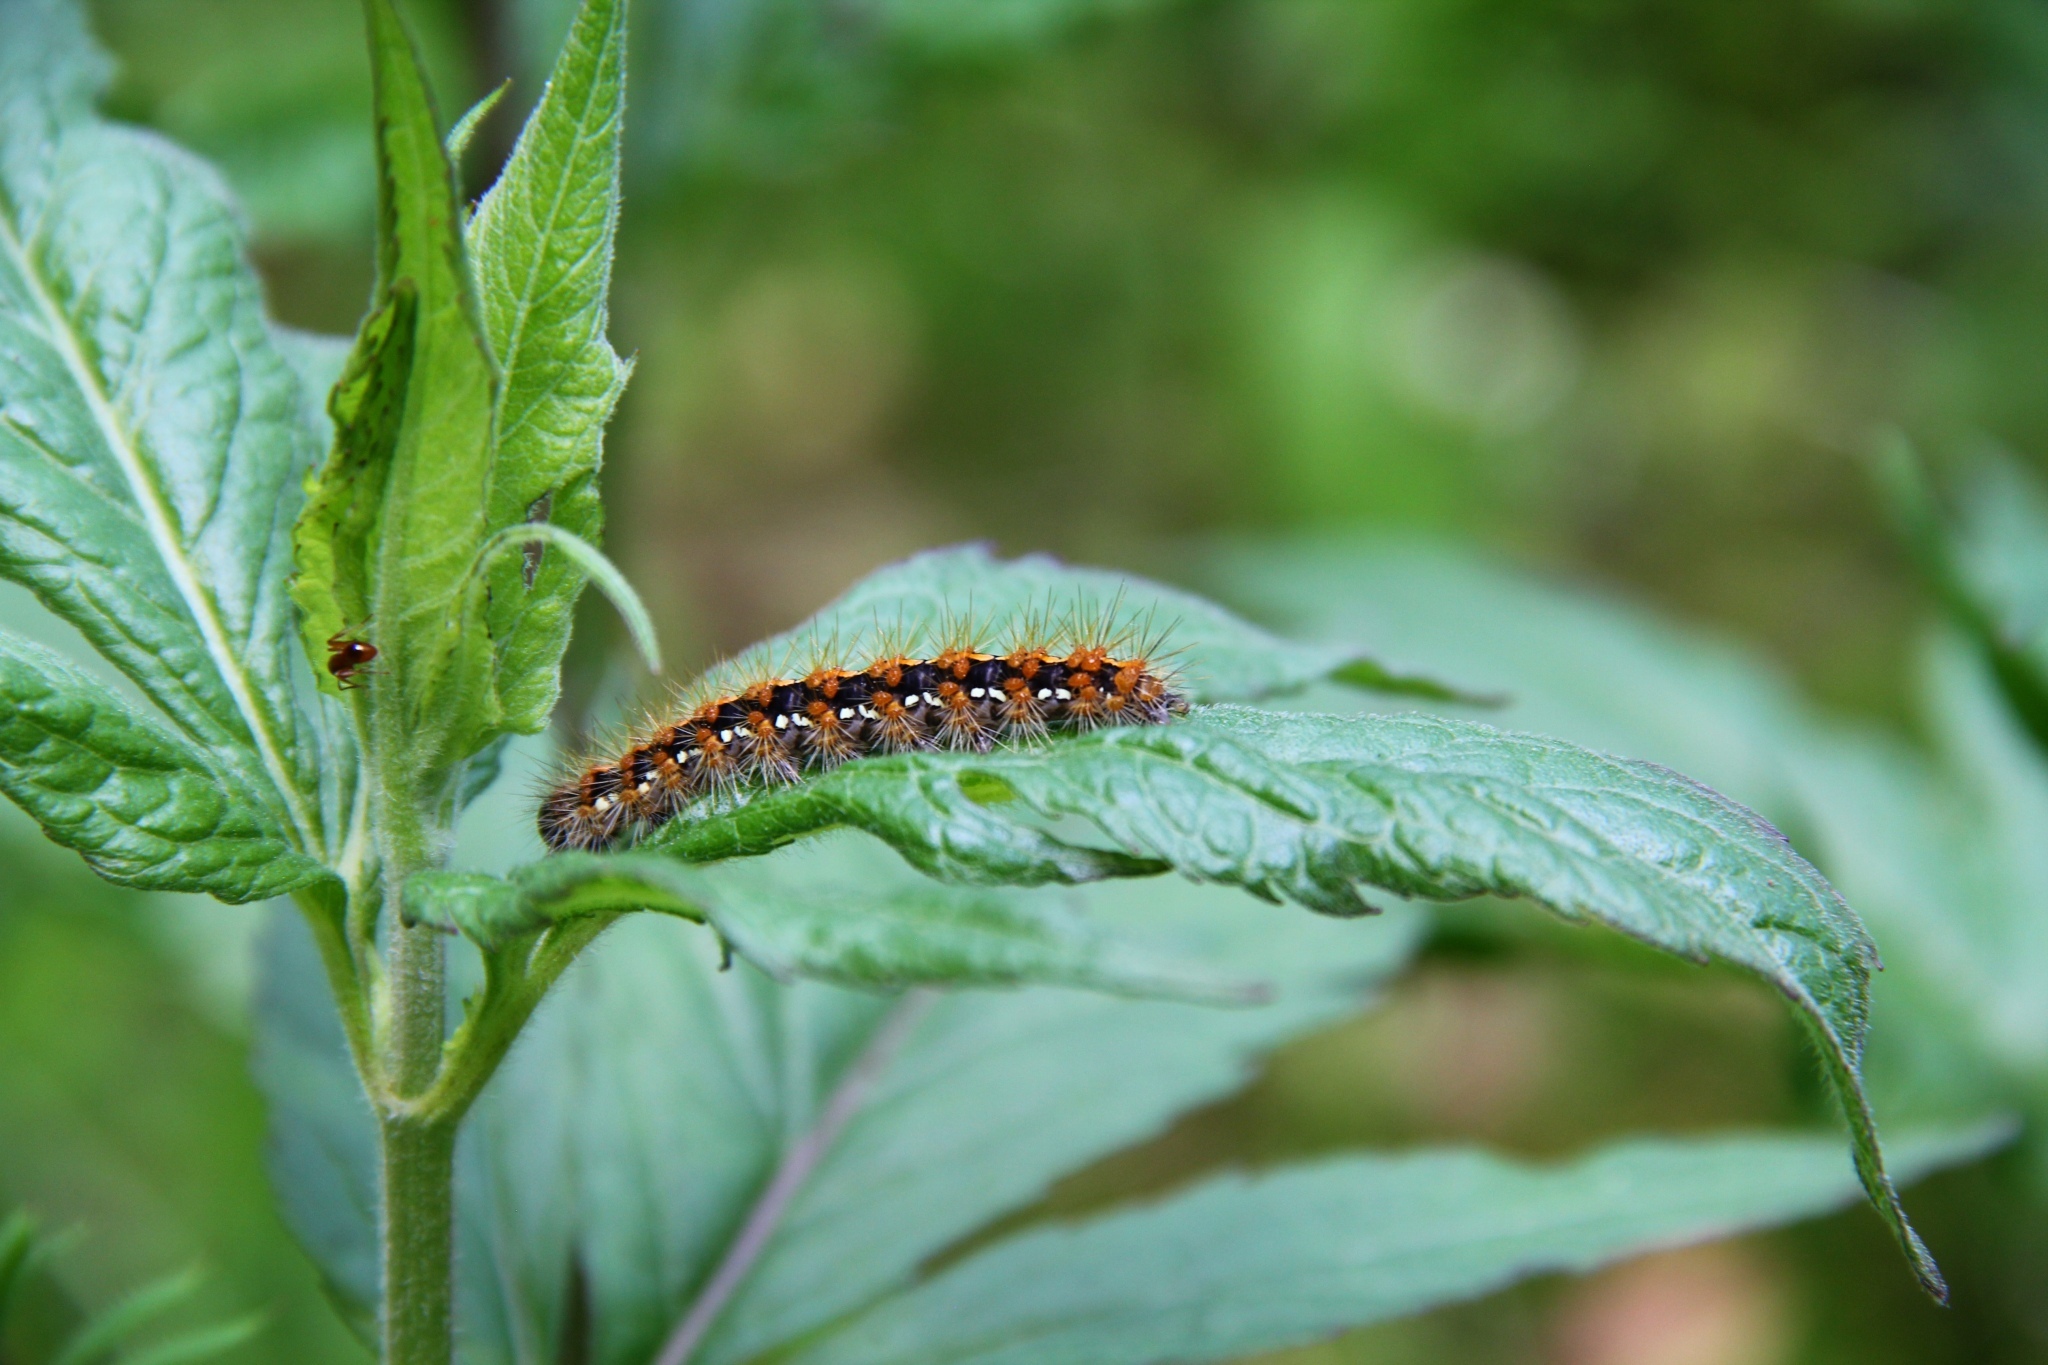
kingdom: Animalia
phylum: Arthropoda
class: Insecta
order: Lepidoptera
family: Erebidae
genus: Euplagia
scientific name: Euplagia quadripunctaria
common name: Jersey tiger
